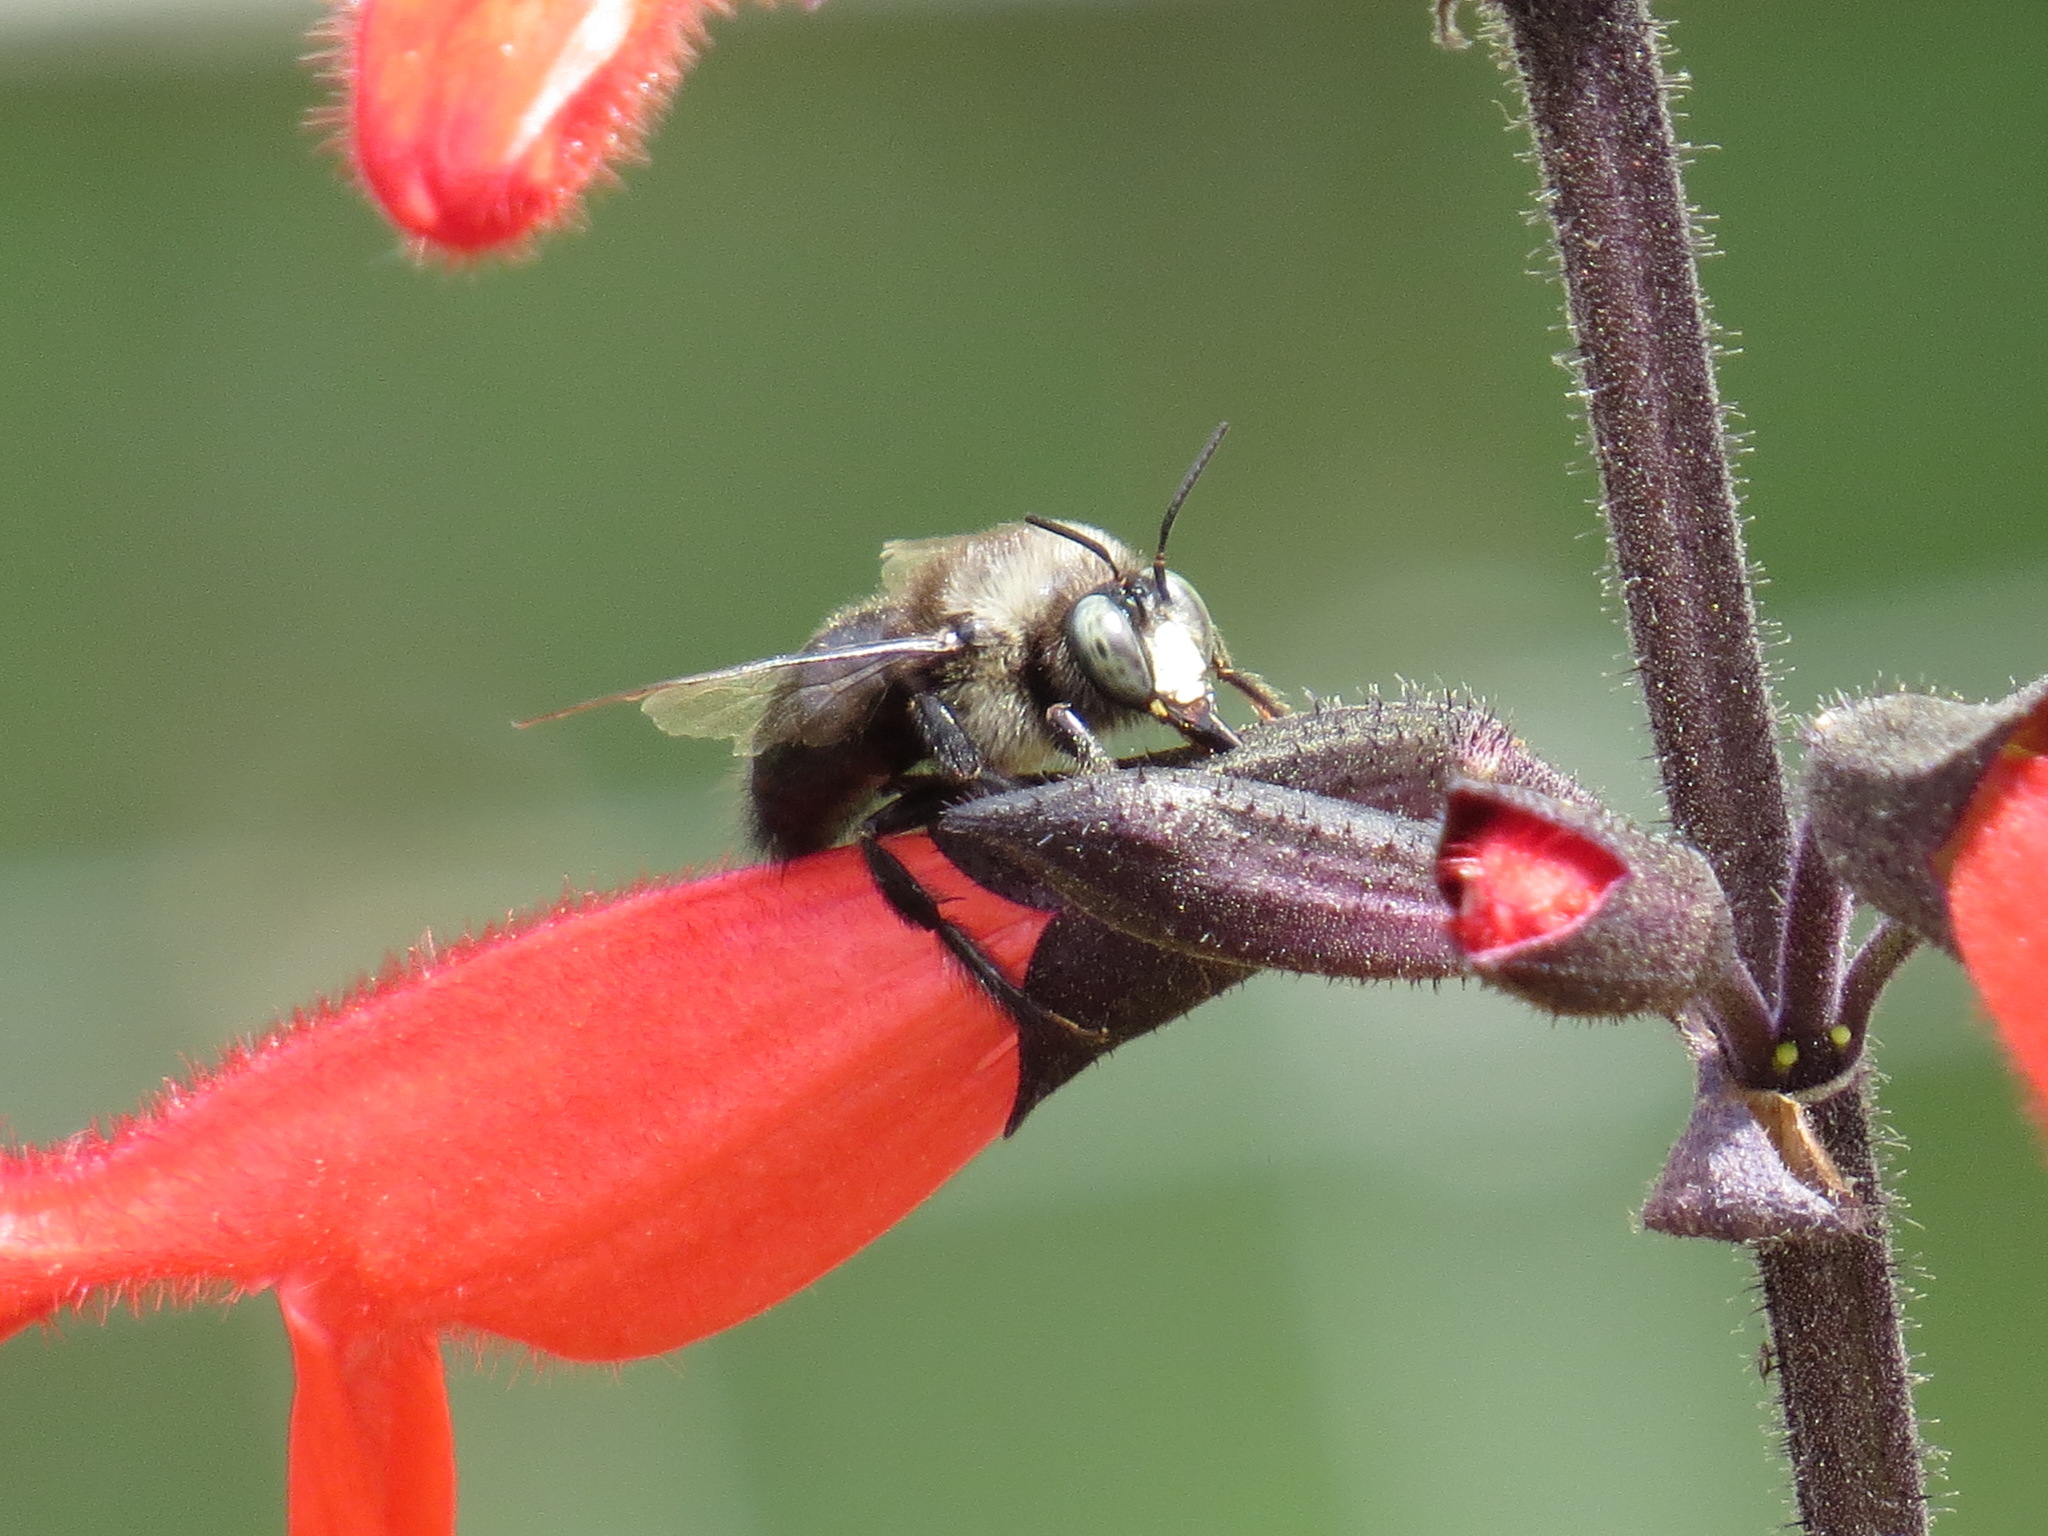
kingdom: Animalia
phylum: Arthropoda
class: Insecta
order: Hymenoptera
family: Apidae
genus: Xylocopa
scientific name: Xylocopa tabaniformis
